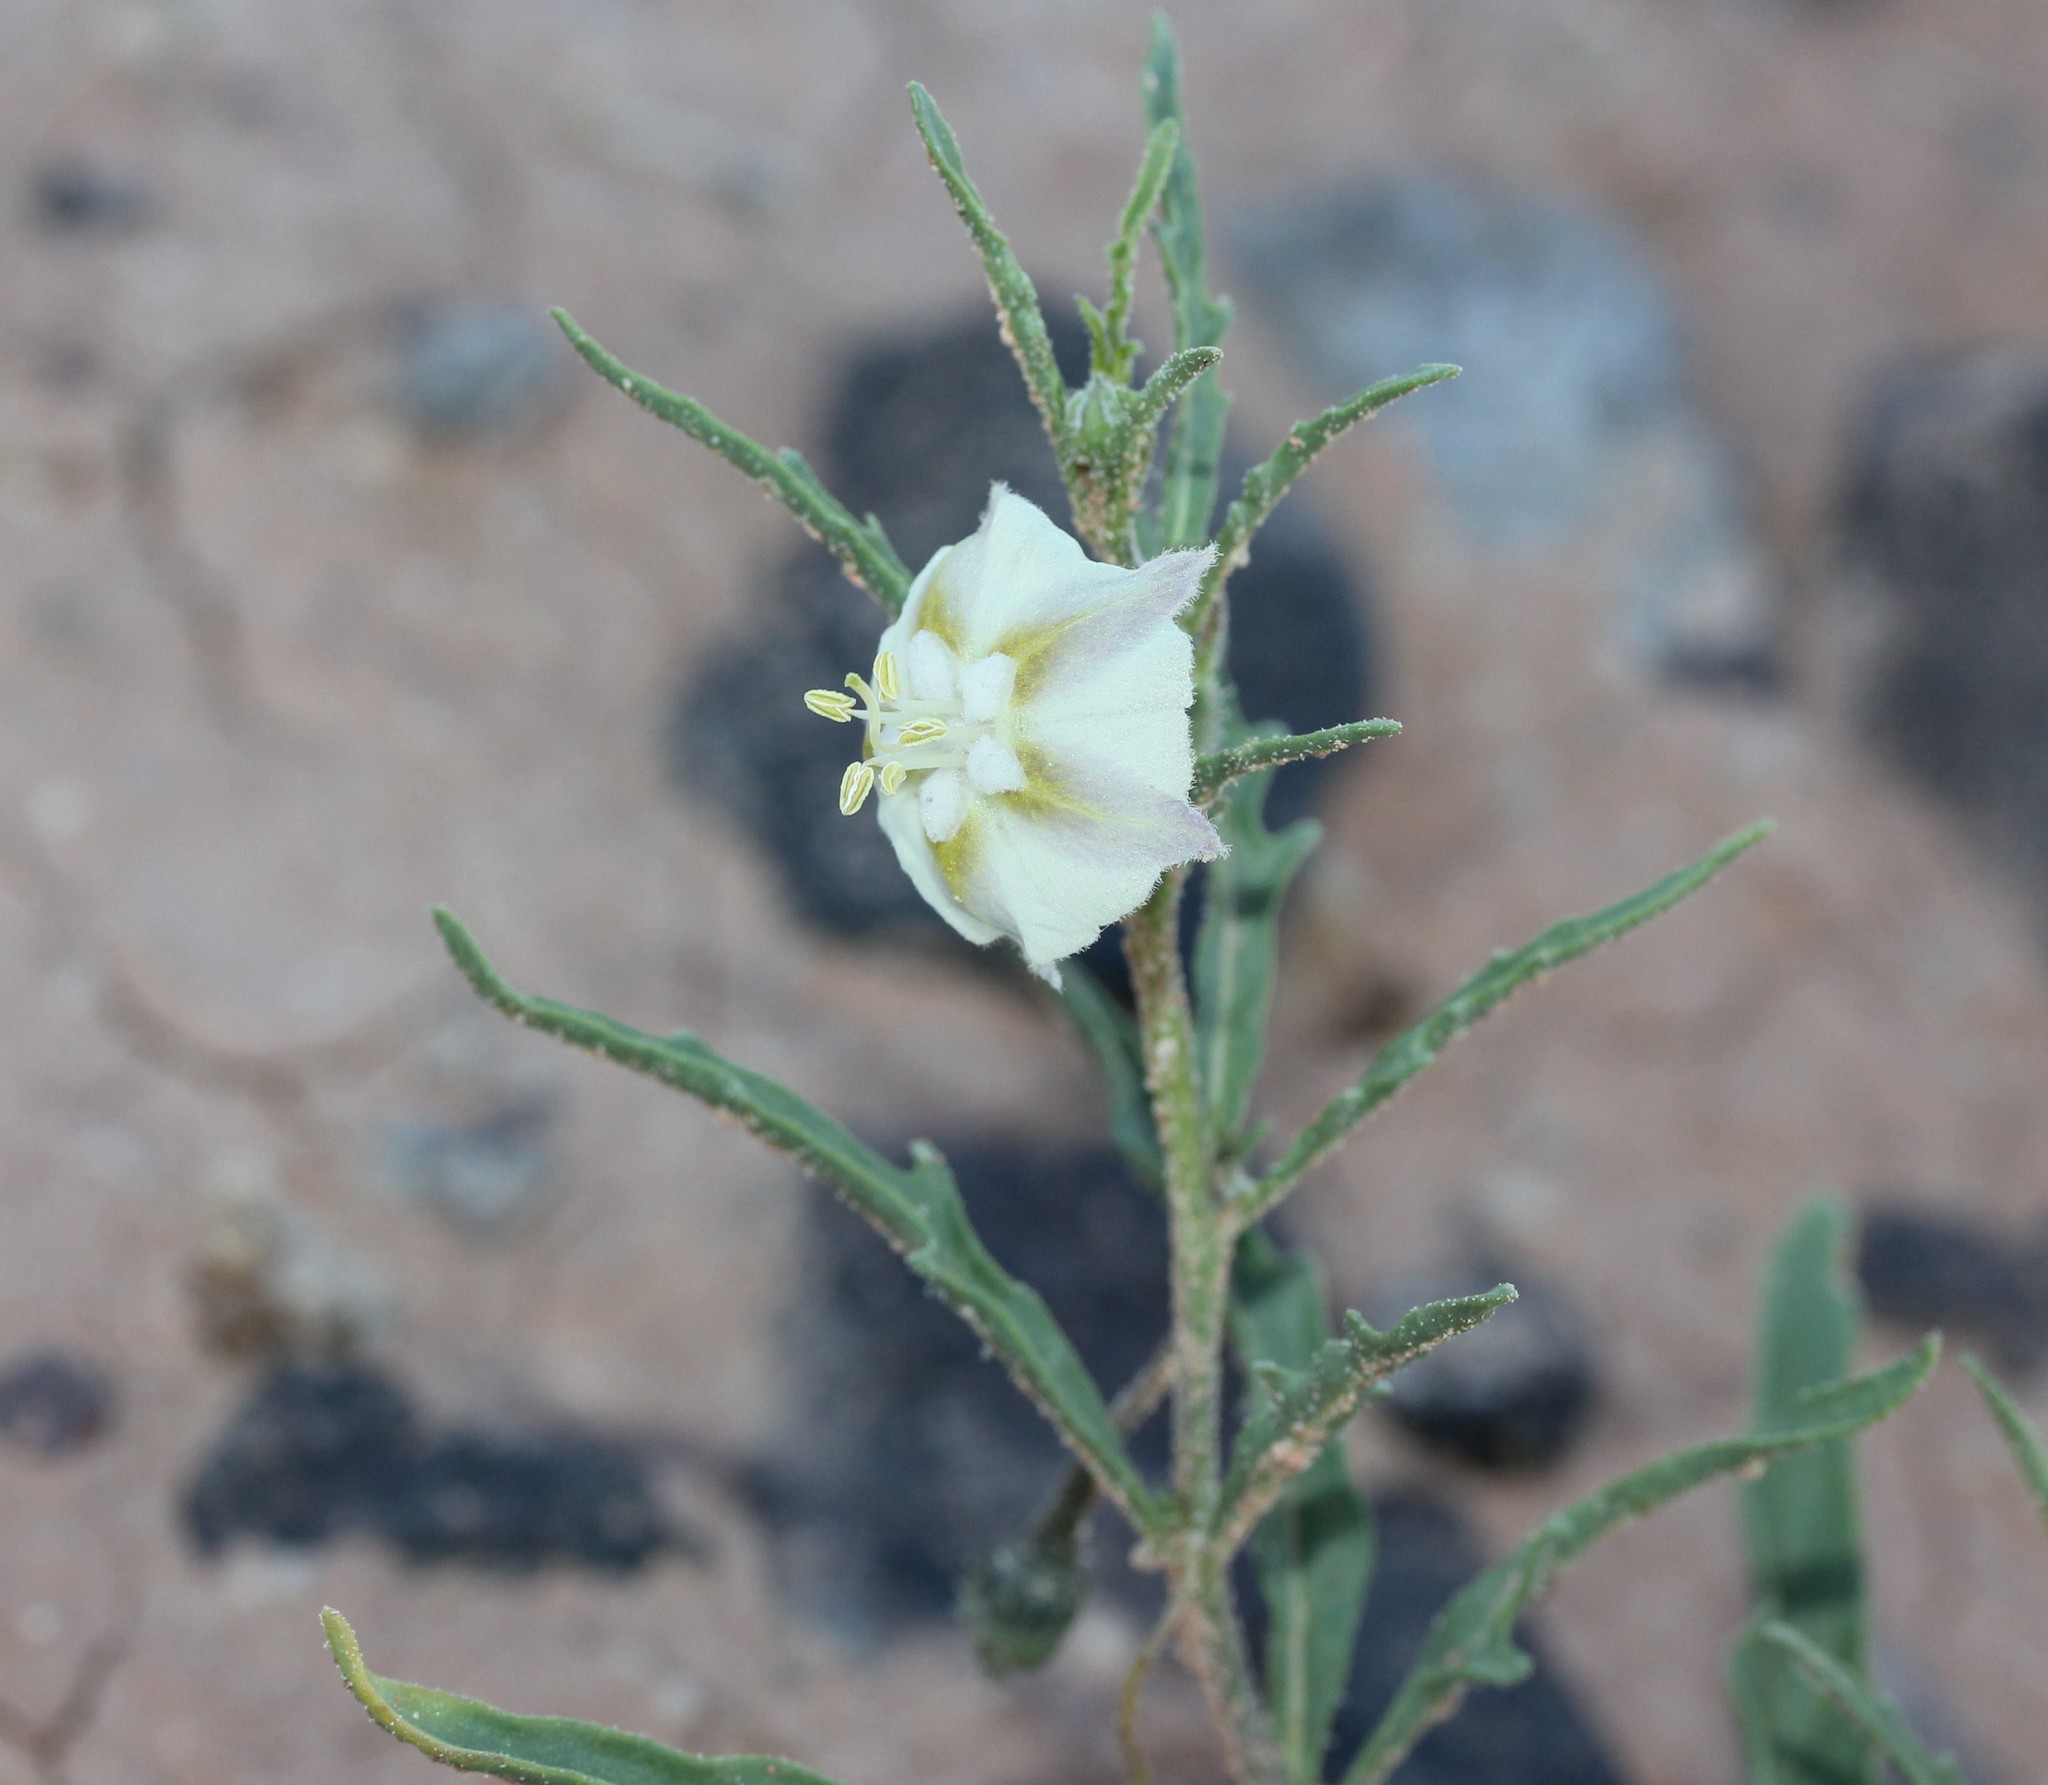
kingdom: Plantae
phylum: Tracheophyta
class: Magnoliopsida
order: Solanales
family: Solanaceae
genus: Chamaesaracha
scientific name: Chamaesaracha coronopus
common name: Smooth chamaesaracha
